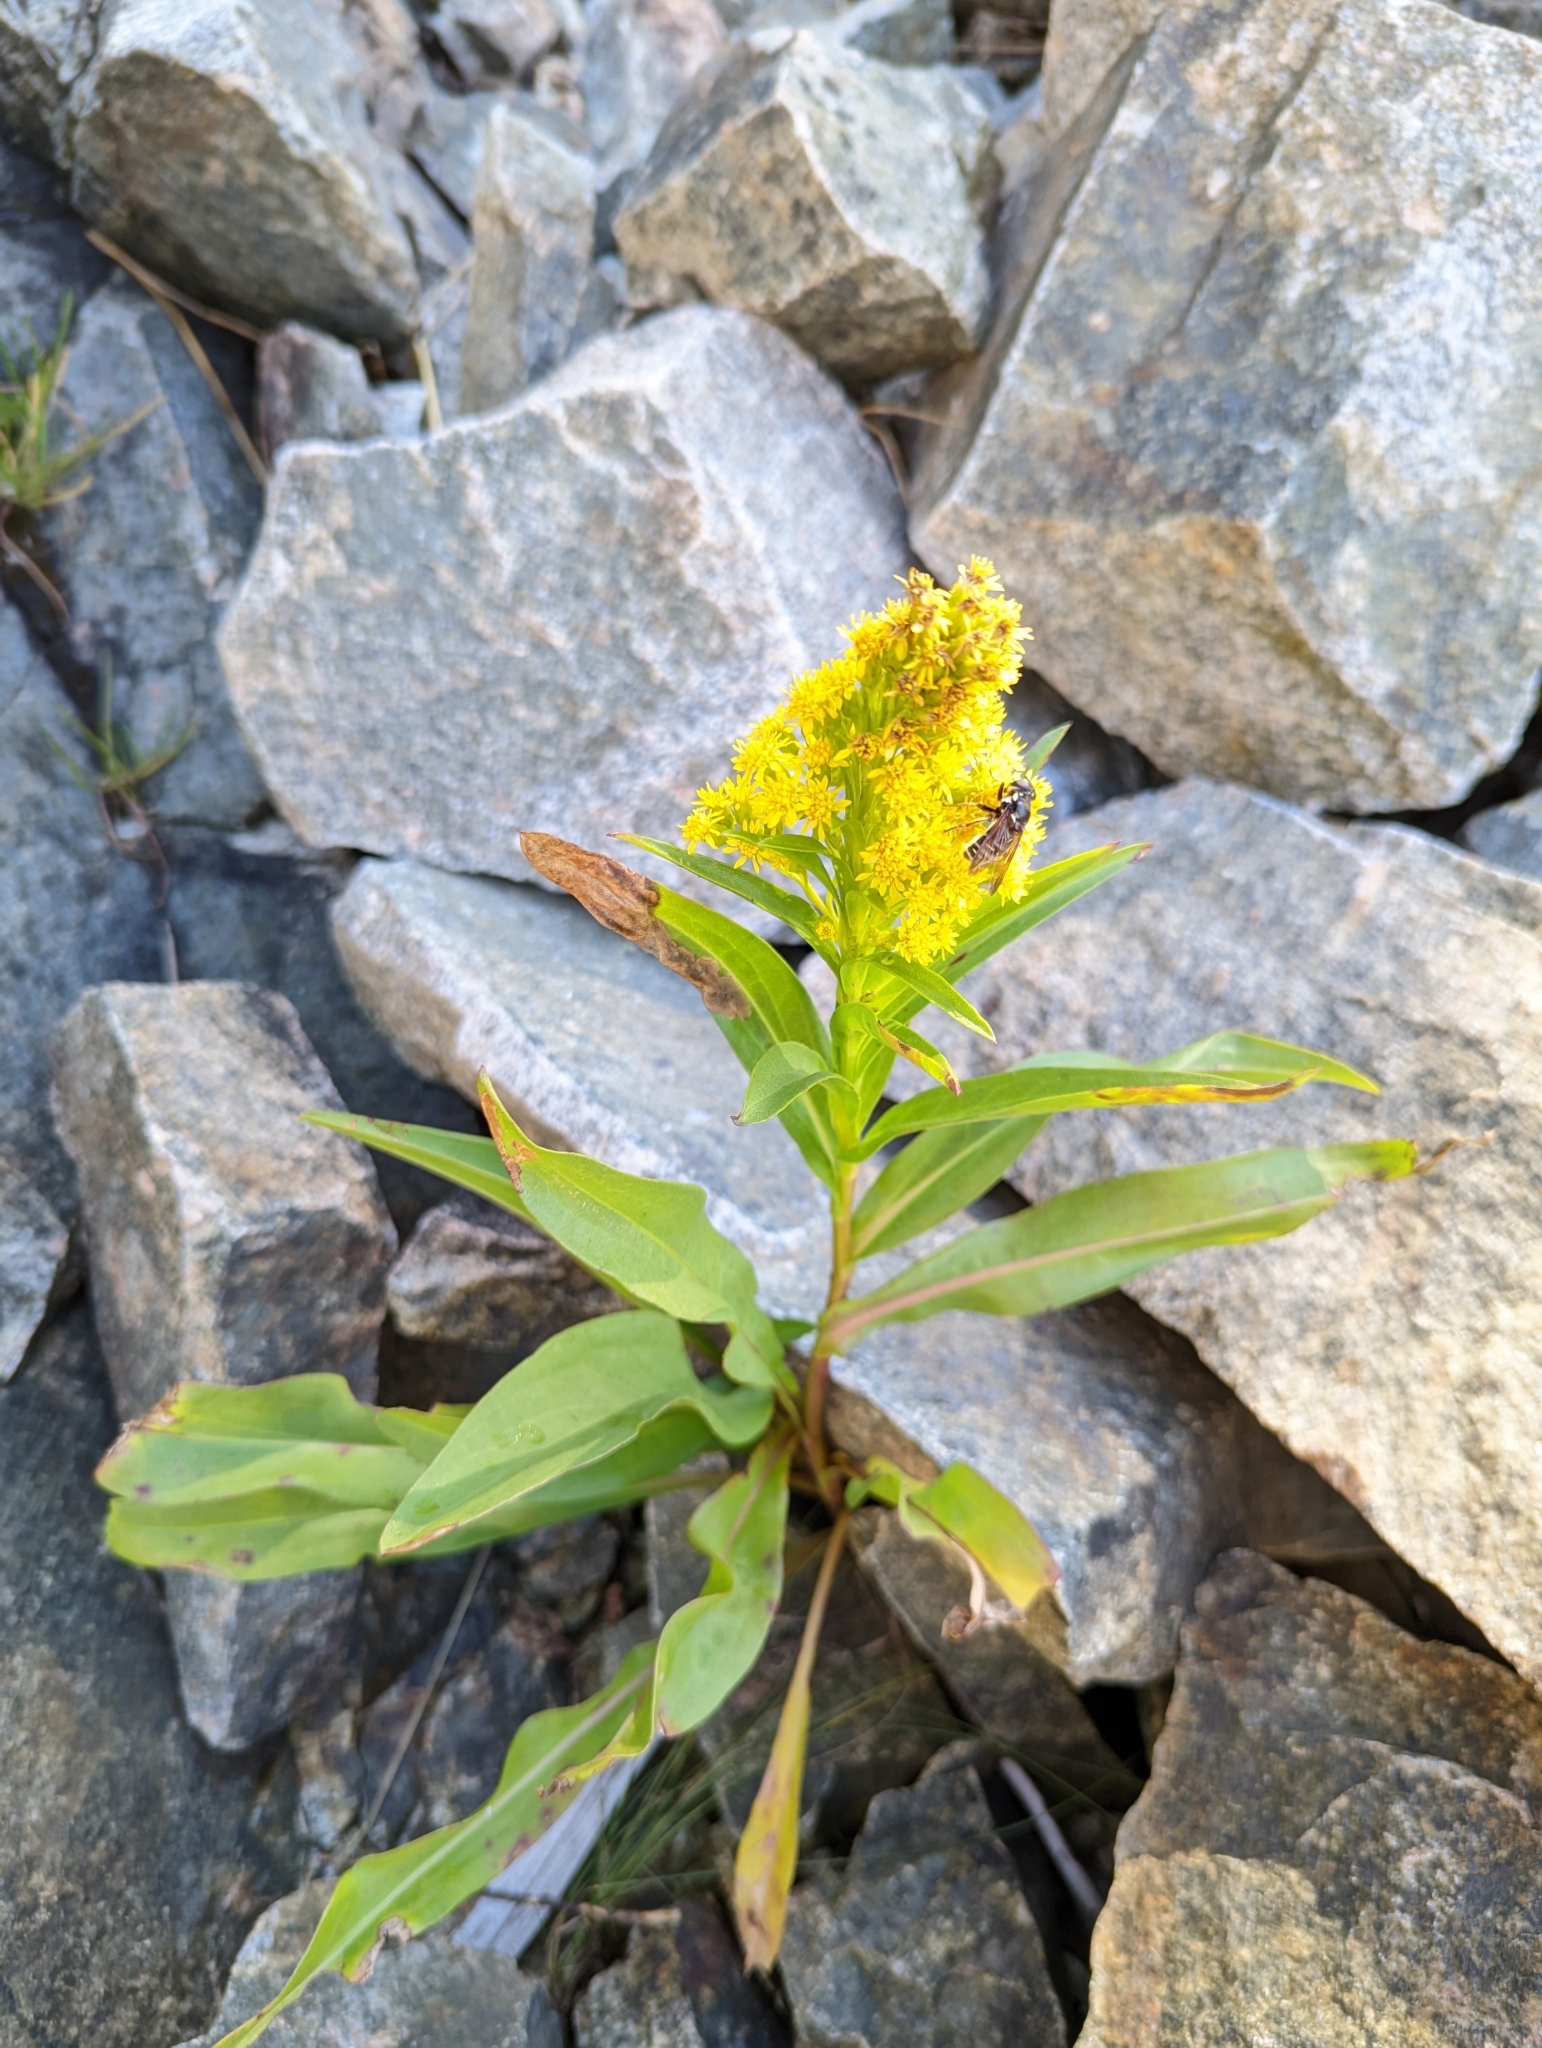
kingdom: Plantae
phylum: Tracheophyta
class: Magnoliopsida
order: Asterales
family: Asteraceae
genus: Solidago
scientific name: Solidago sempervirens
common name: Salt-marsh goldenrod
